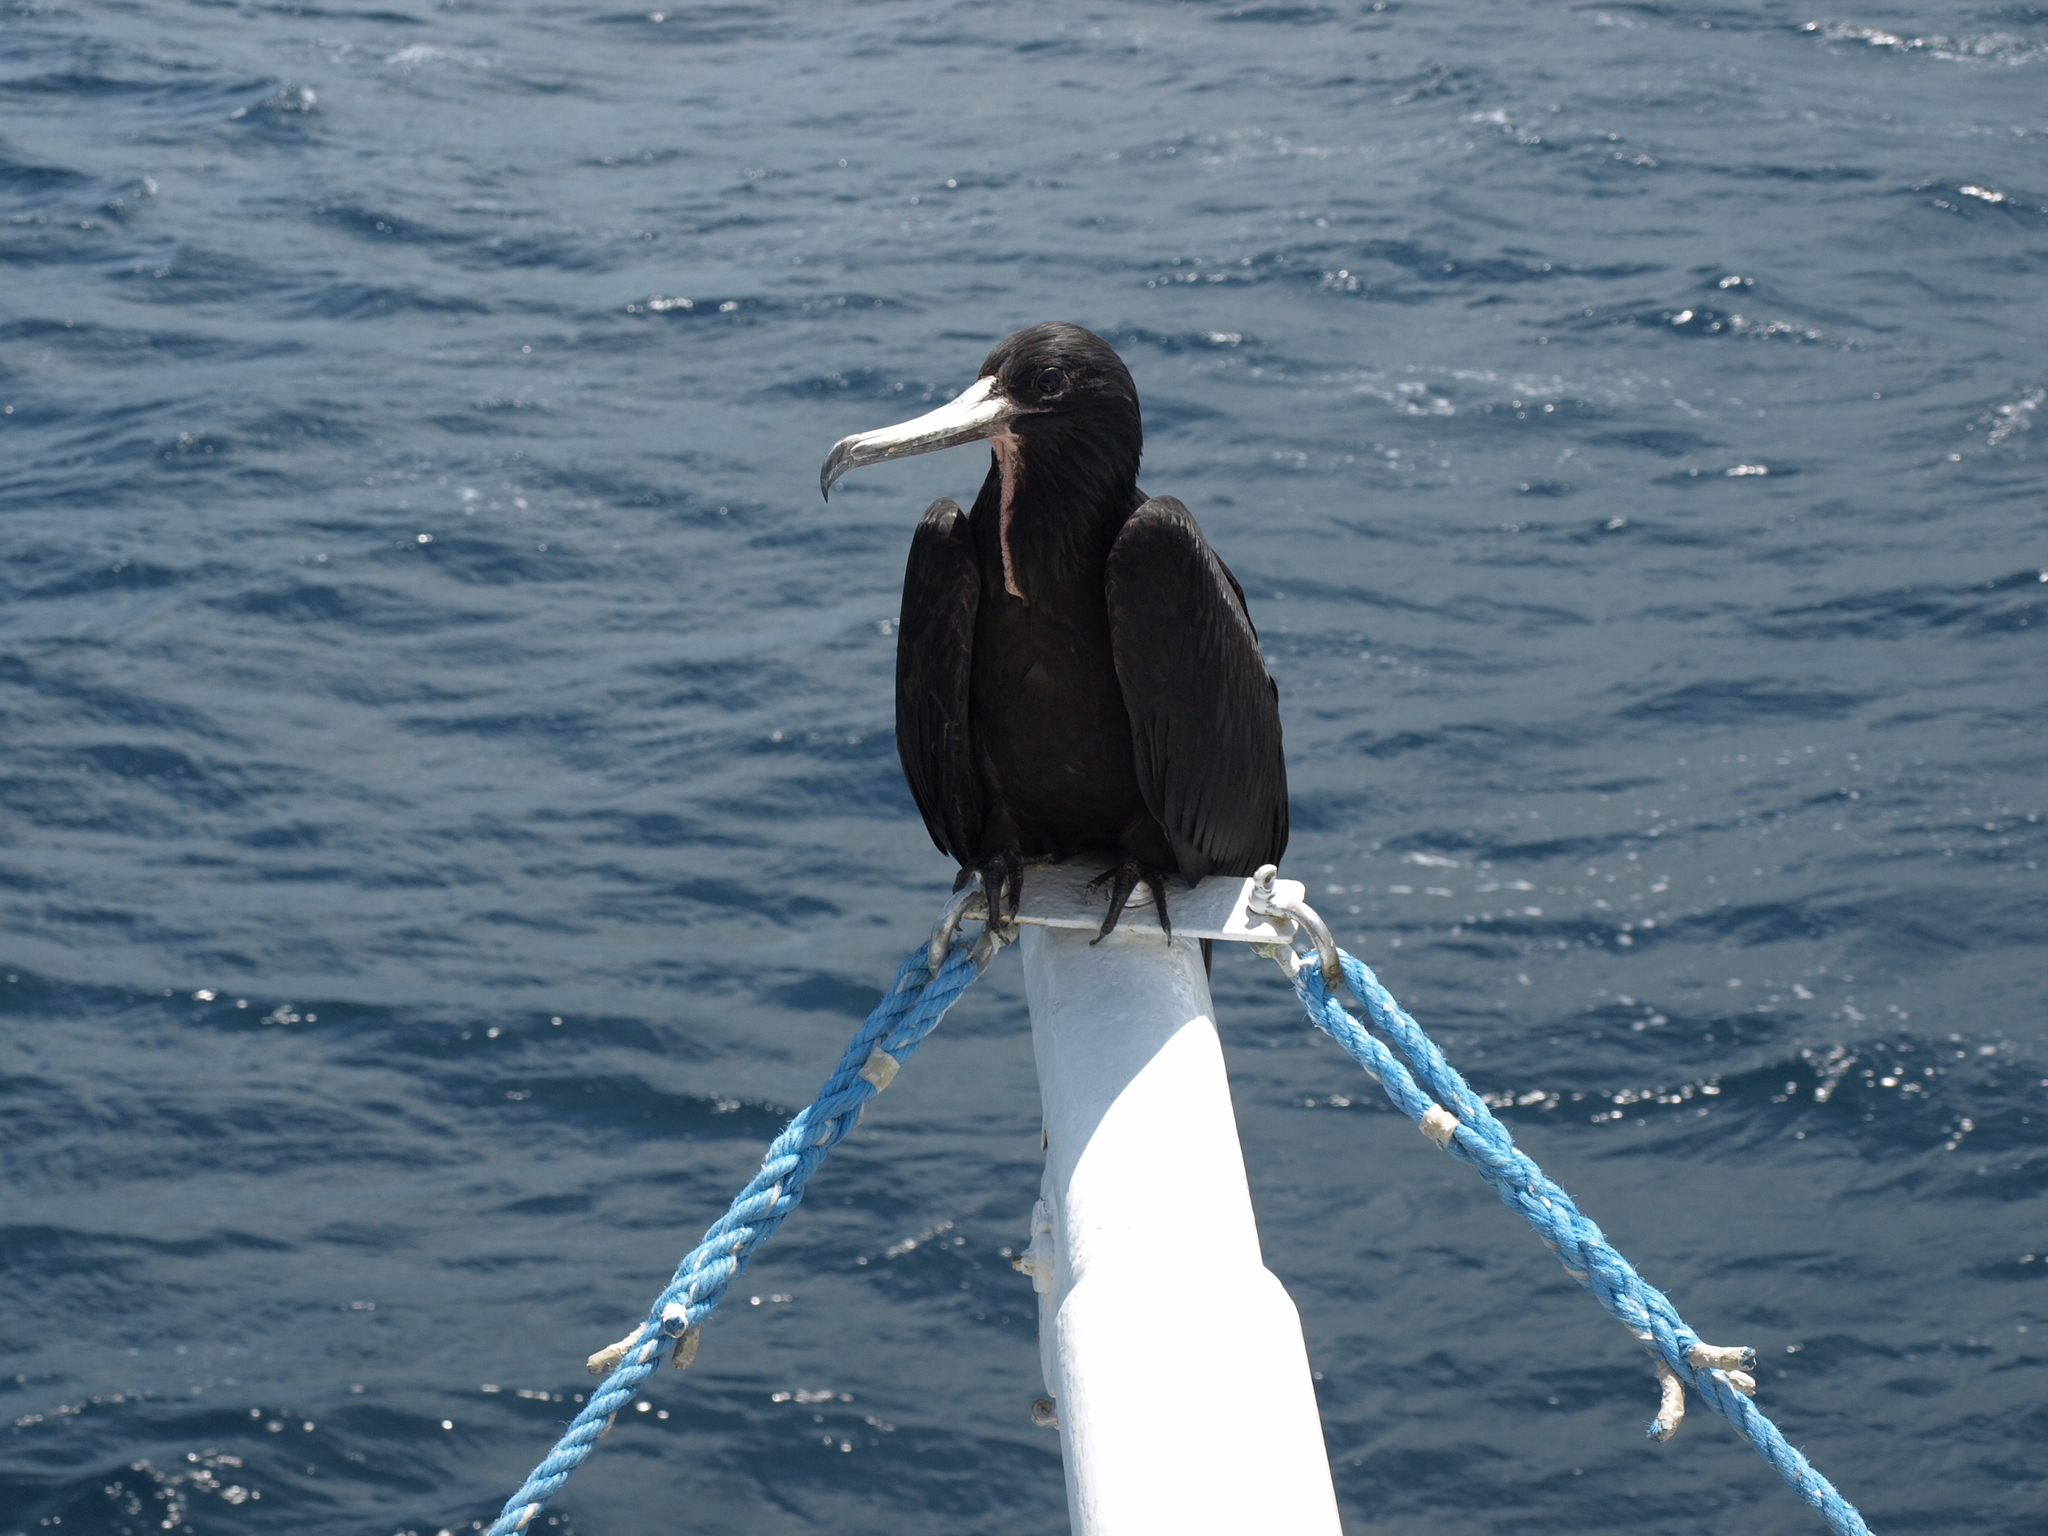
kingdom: Animalia
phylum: Chordata
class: Aves
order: Suliformes
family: Fregatidae
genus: Fregata
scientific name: Fregata magnificens
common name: Magnificent frigatebird
